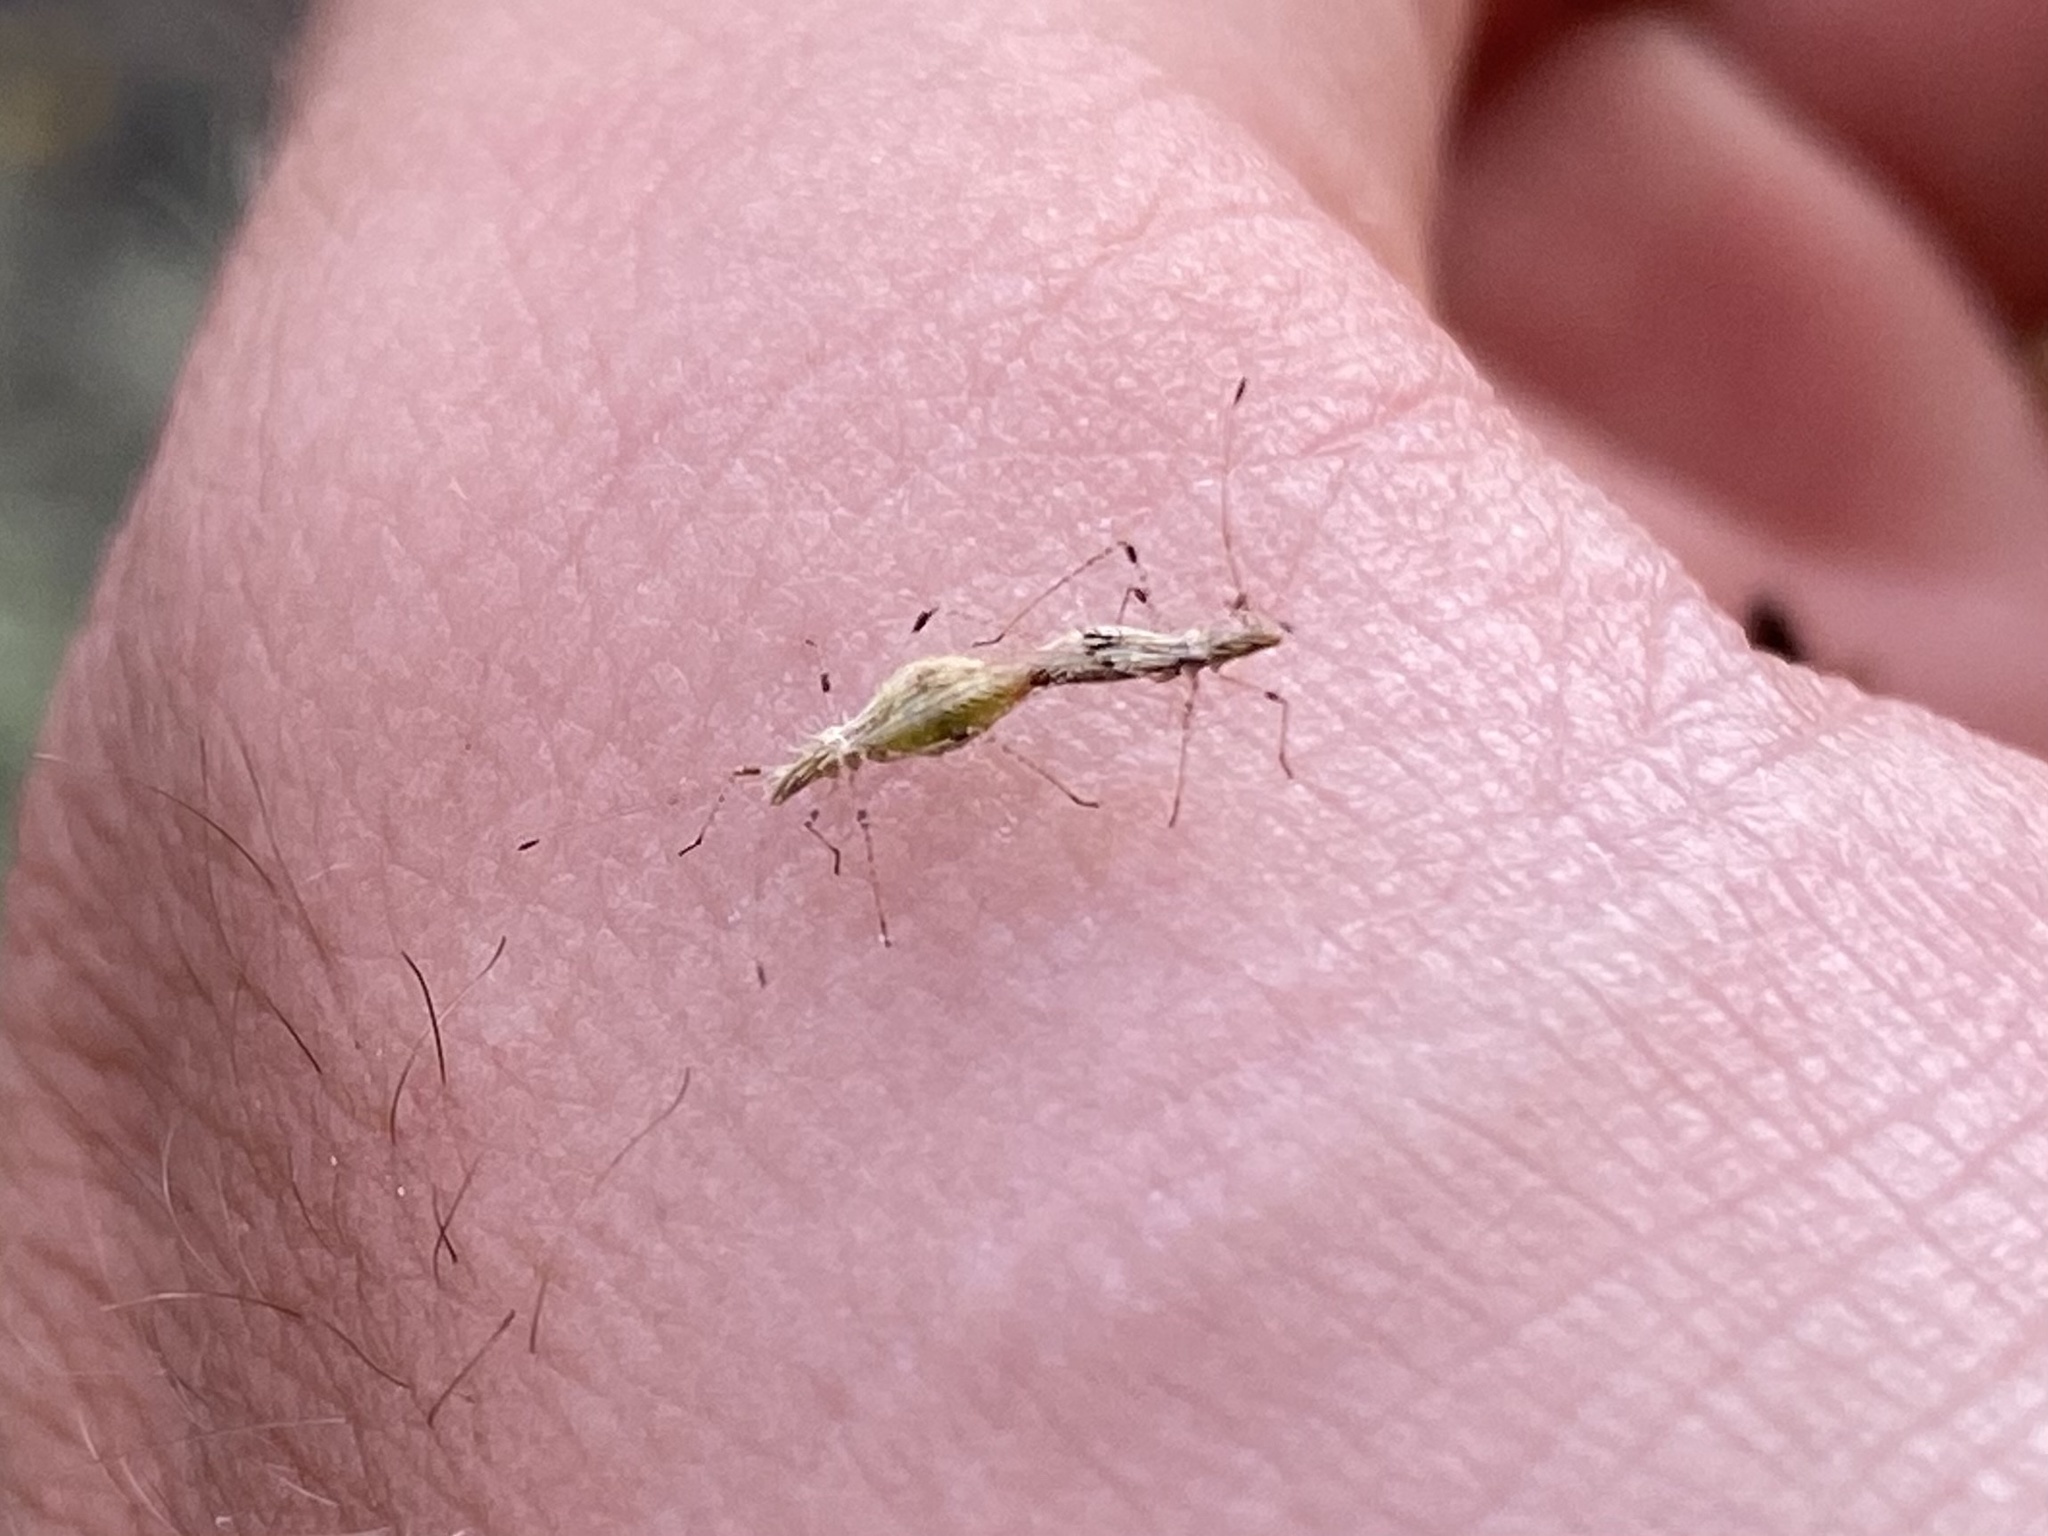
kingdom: Animalia
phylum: Arthropoda
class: Insecta
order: Hemiptera
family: Berytidae
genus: Hoplinus
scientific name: Hoplinus echinatus
